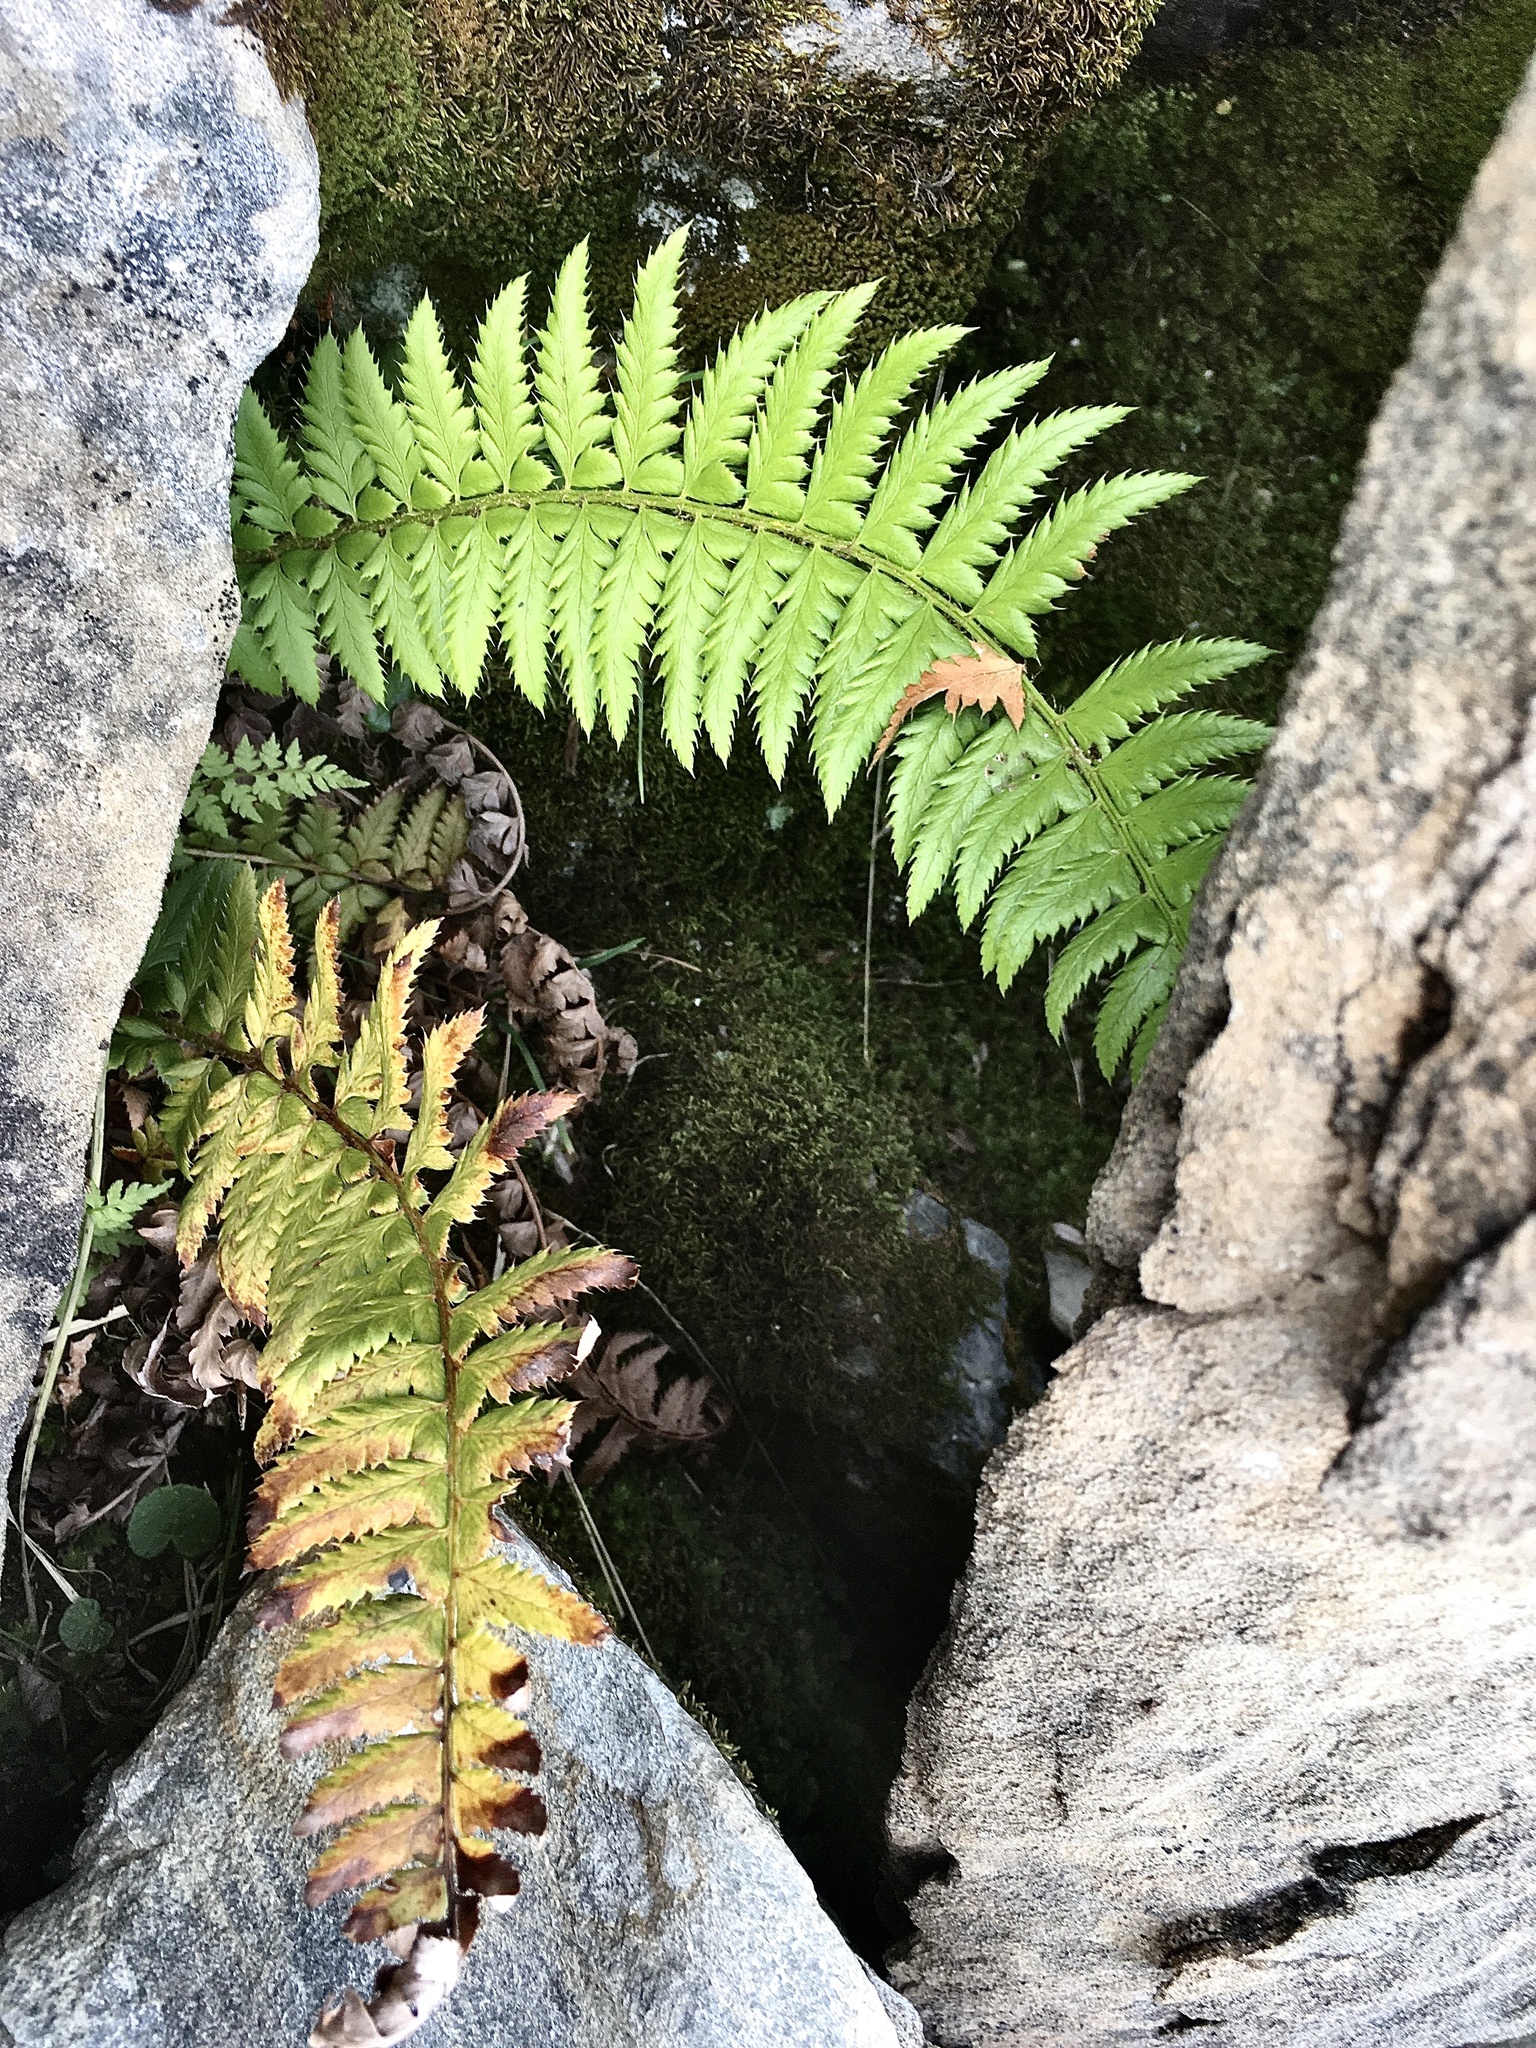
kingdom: Plantae
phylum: Tracheophyta
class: Polypodiopsida
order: Polypodiales
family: Dryopteridaceae
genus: Polystichum
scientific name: Polystichum aculeatum
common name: Hard shield-fern
